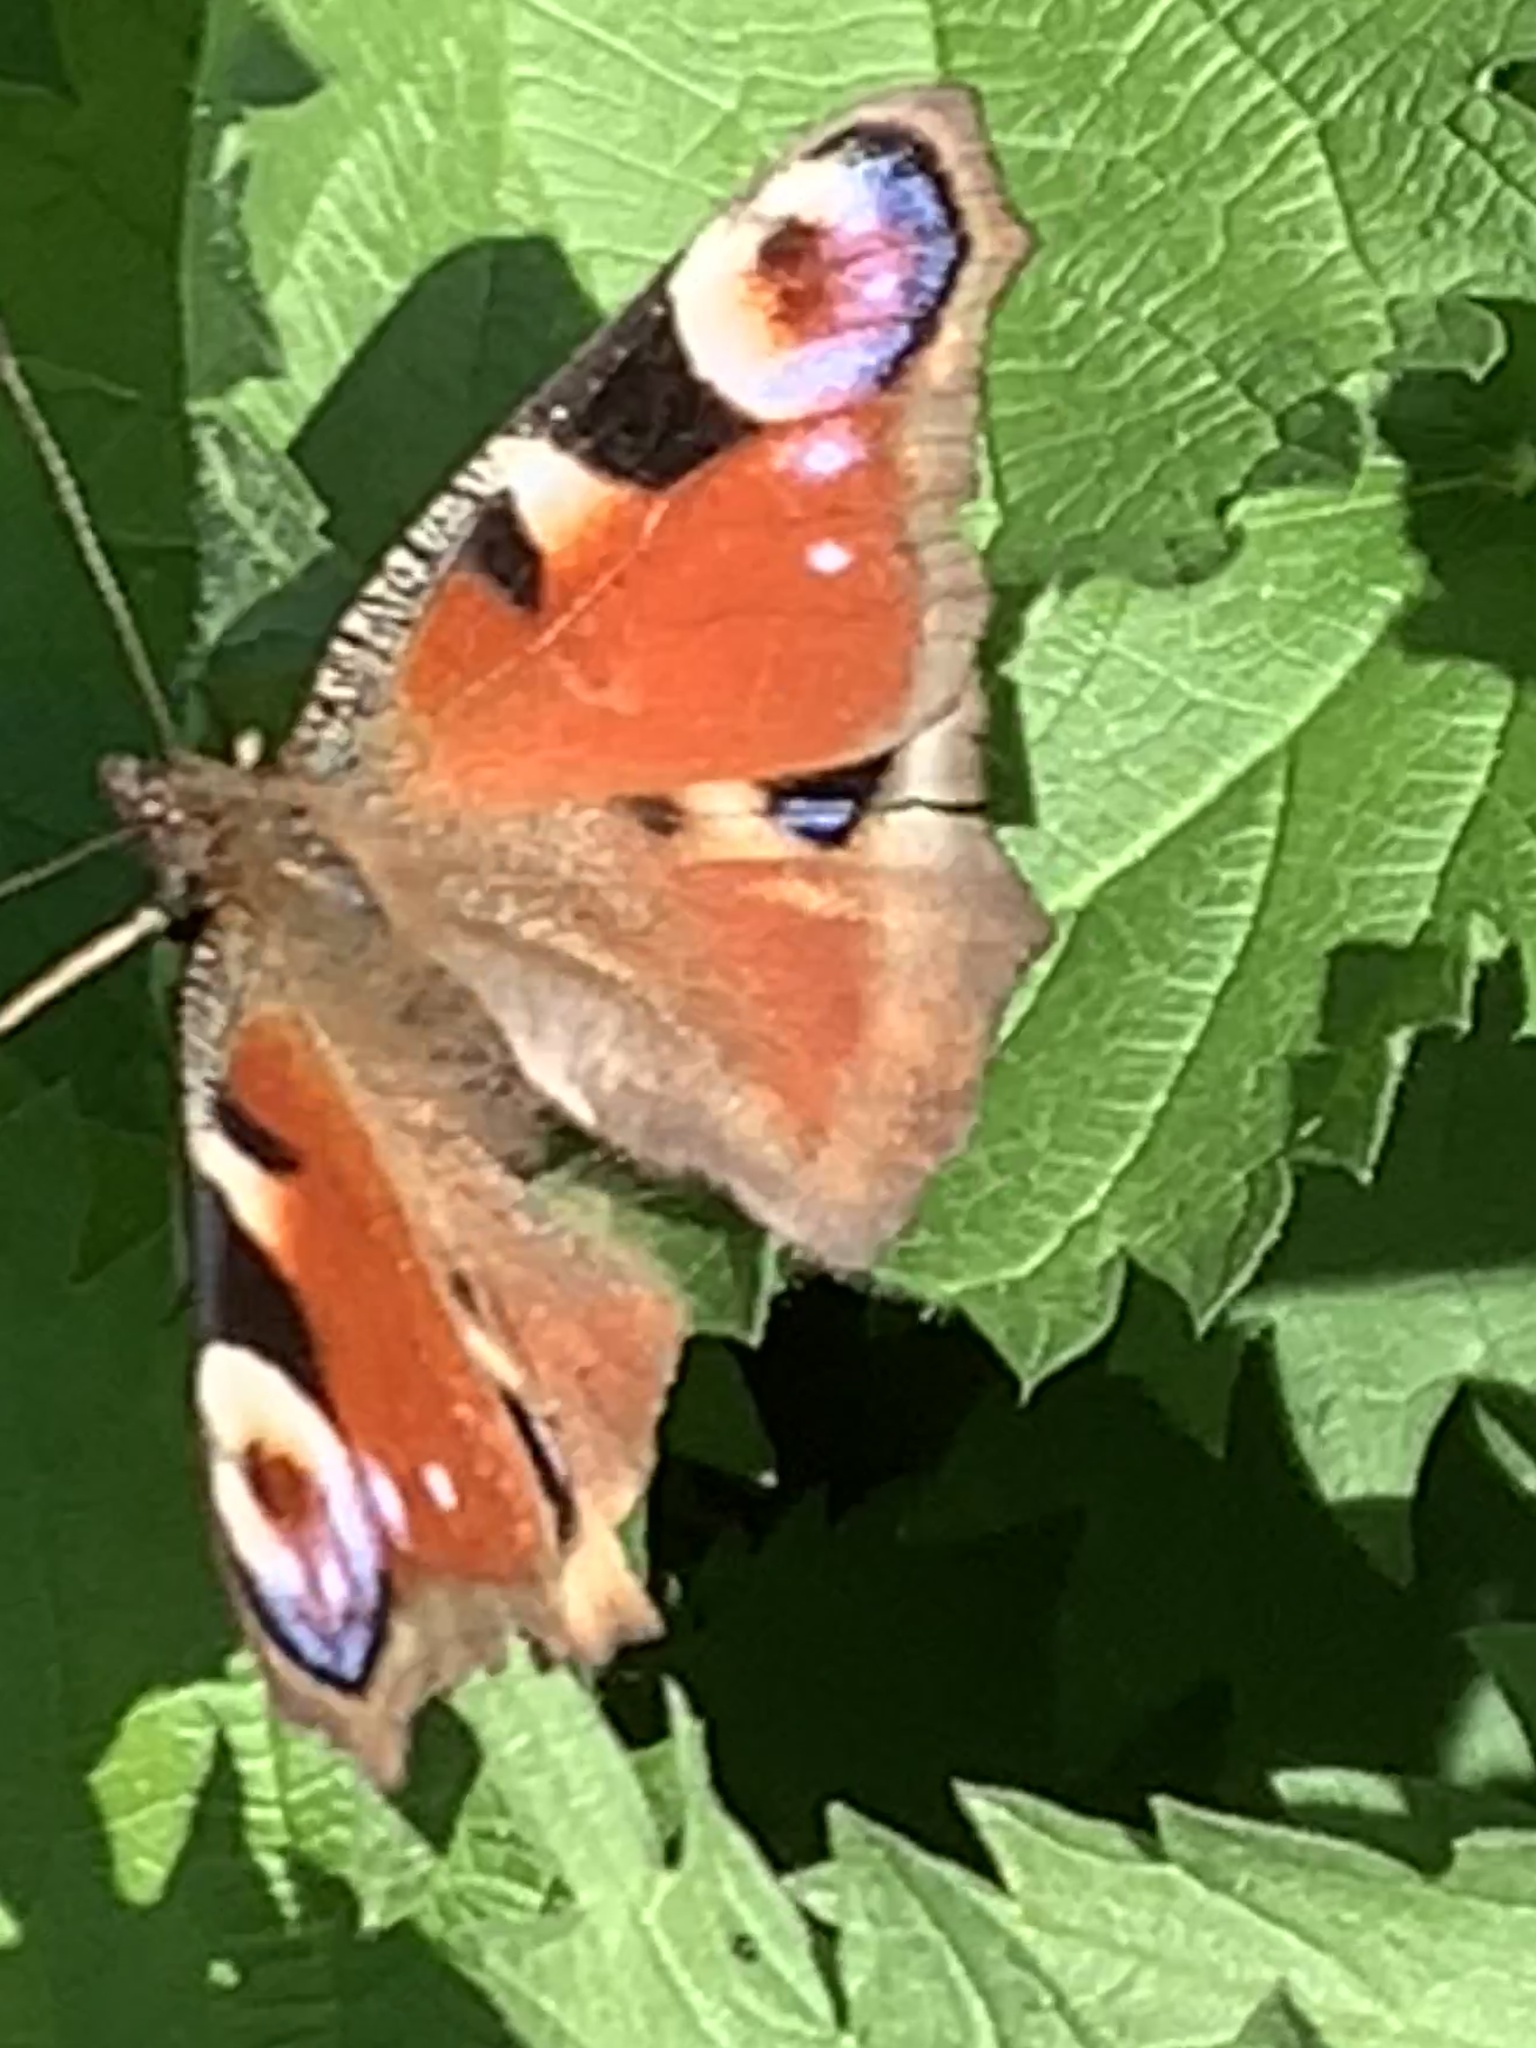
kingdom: Animalia
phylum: Arthropoda
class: Insecta
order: Lepidoptera
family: Nymphalidae
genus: Aglais
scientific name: Aglais io
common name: Peacock
